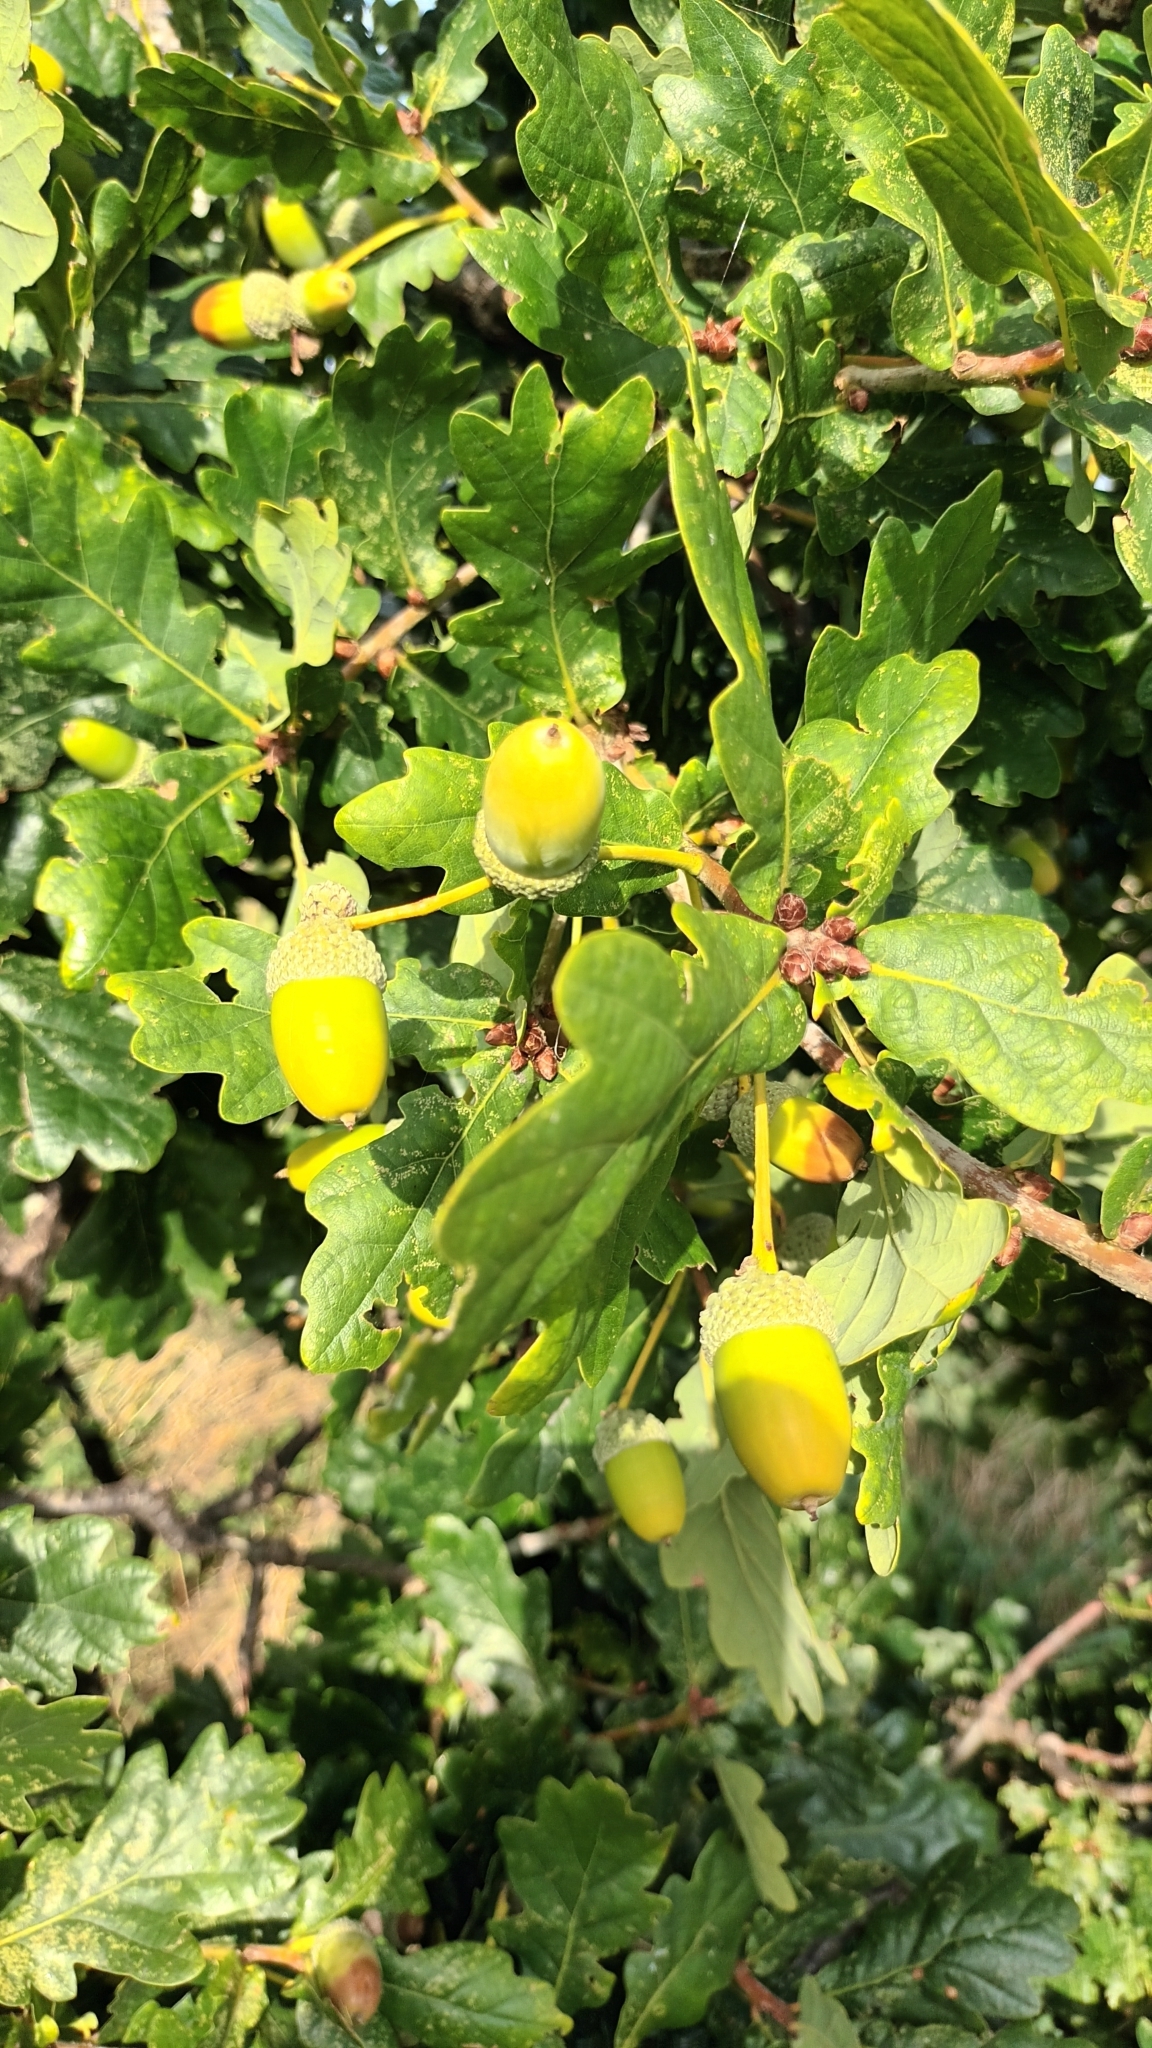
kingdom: Plantae
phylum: Tracheophyta
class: Magnoliopsida
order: Fagales
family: Fagaceae
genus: Quercus
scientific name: Quercus robur
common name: Pedunculate oak
